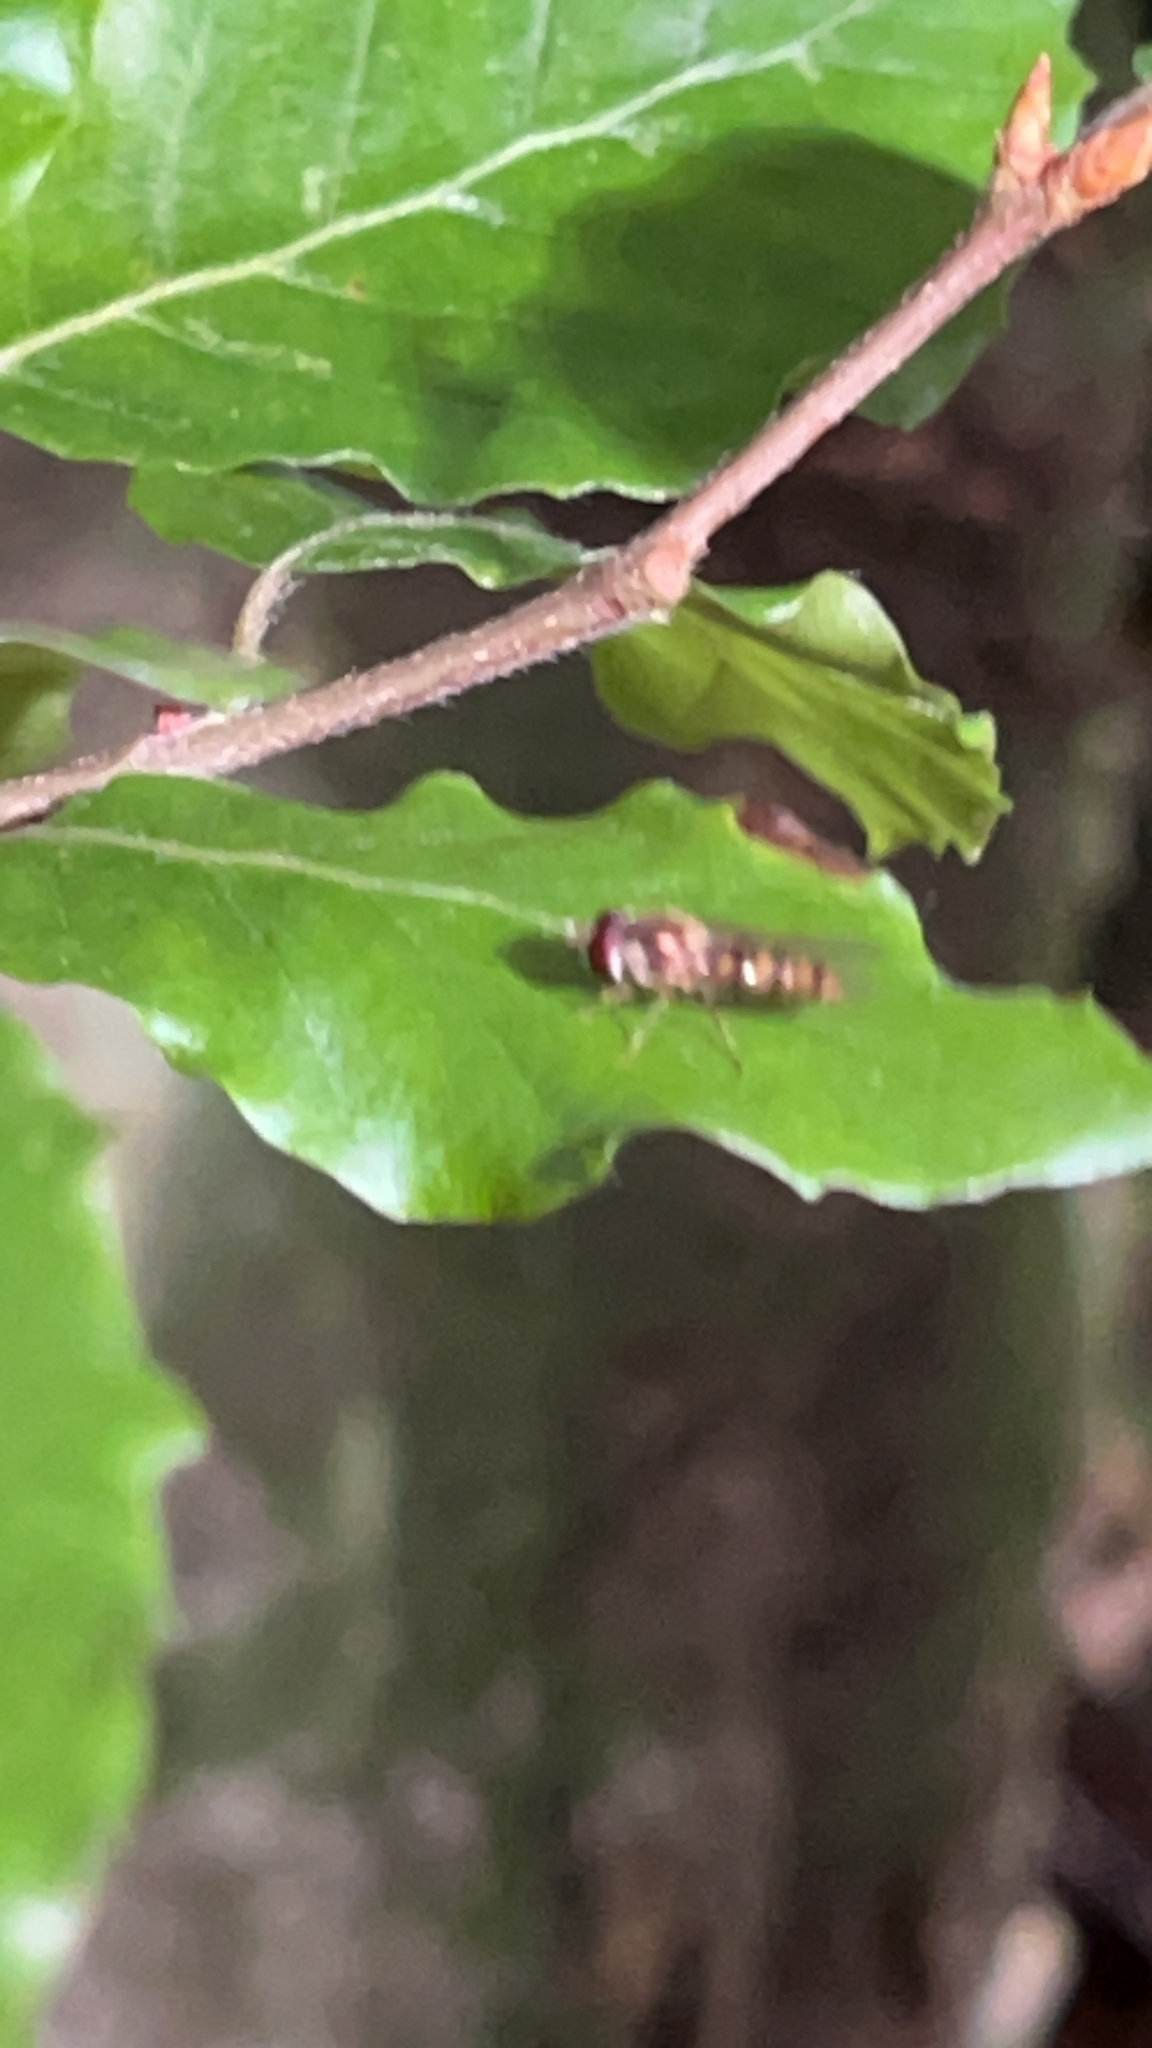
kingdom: Animalia
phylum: Arthropoda
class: Insecta
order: Diptera
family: Syrphidae
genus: Episyrphus
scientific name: Episyrphus balteatus
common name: Marmalade hoverfly
